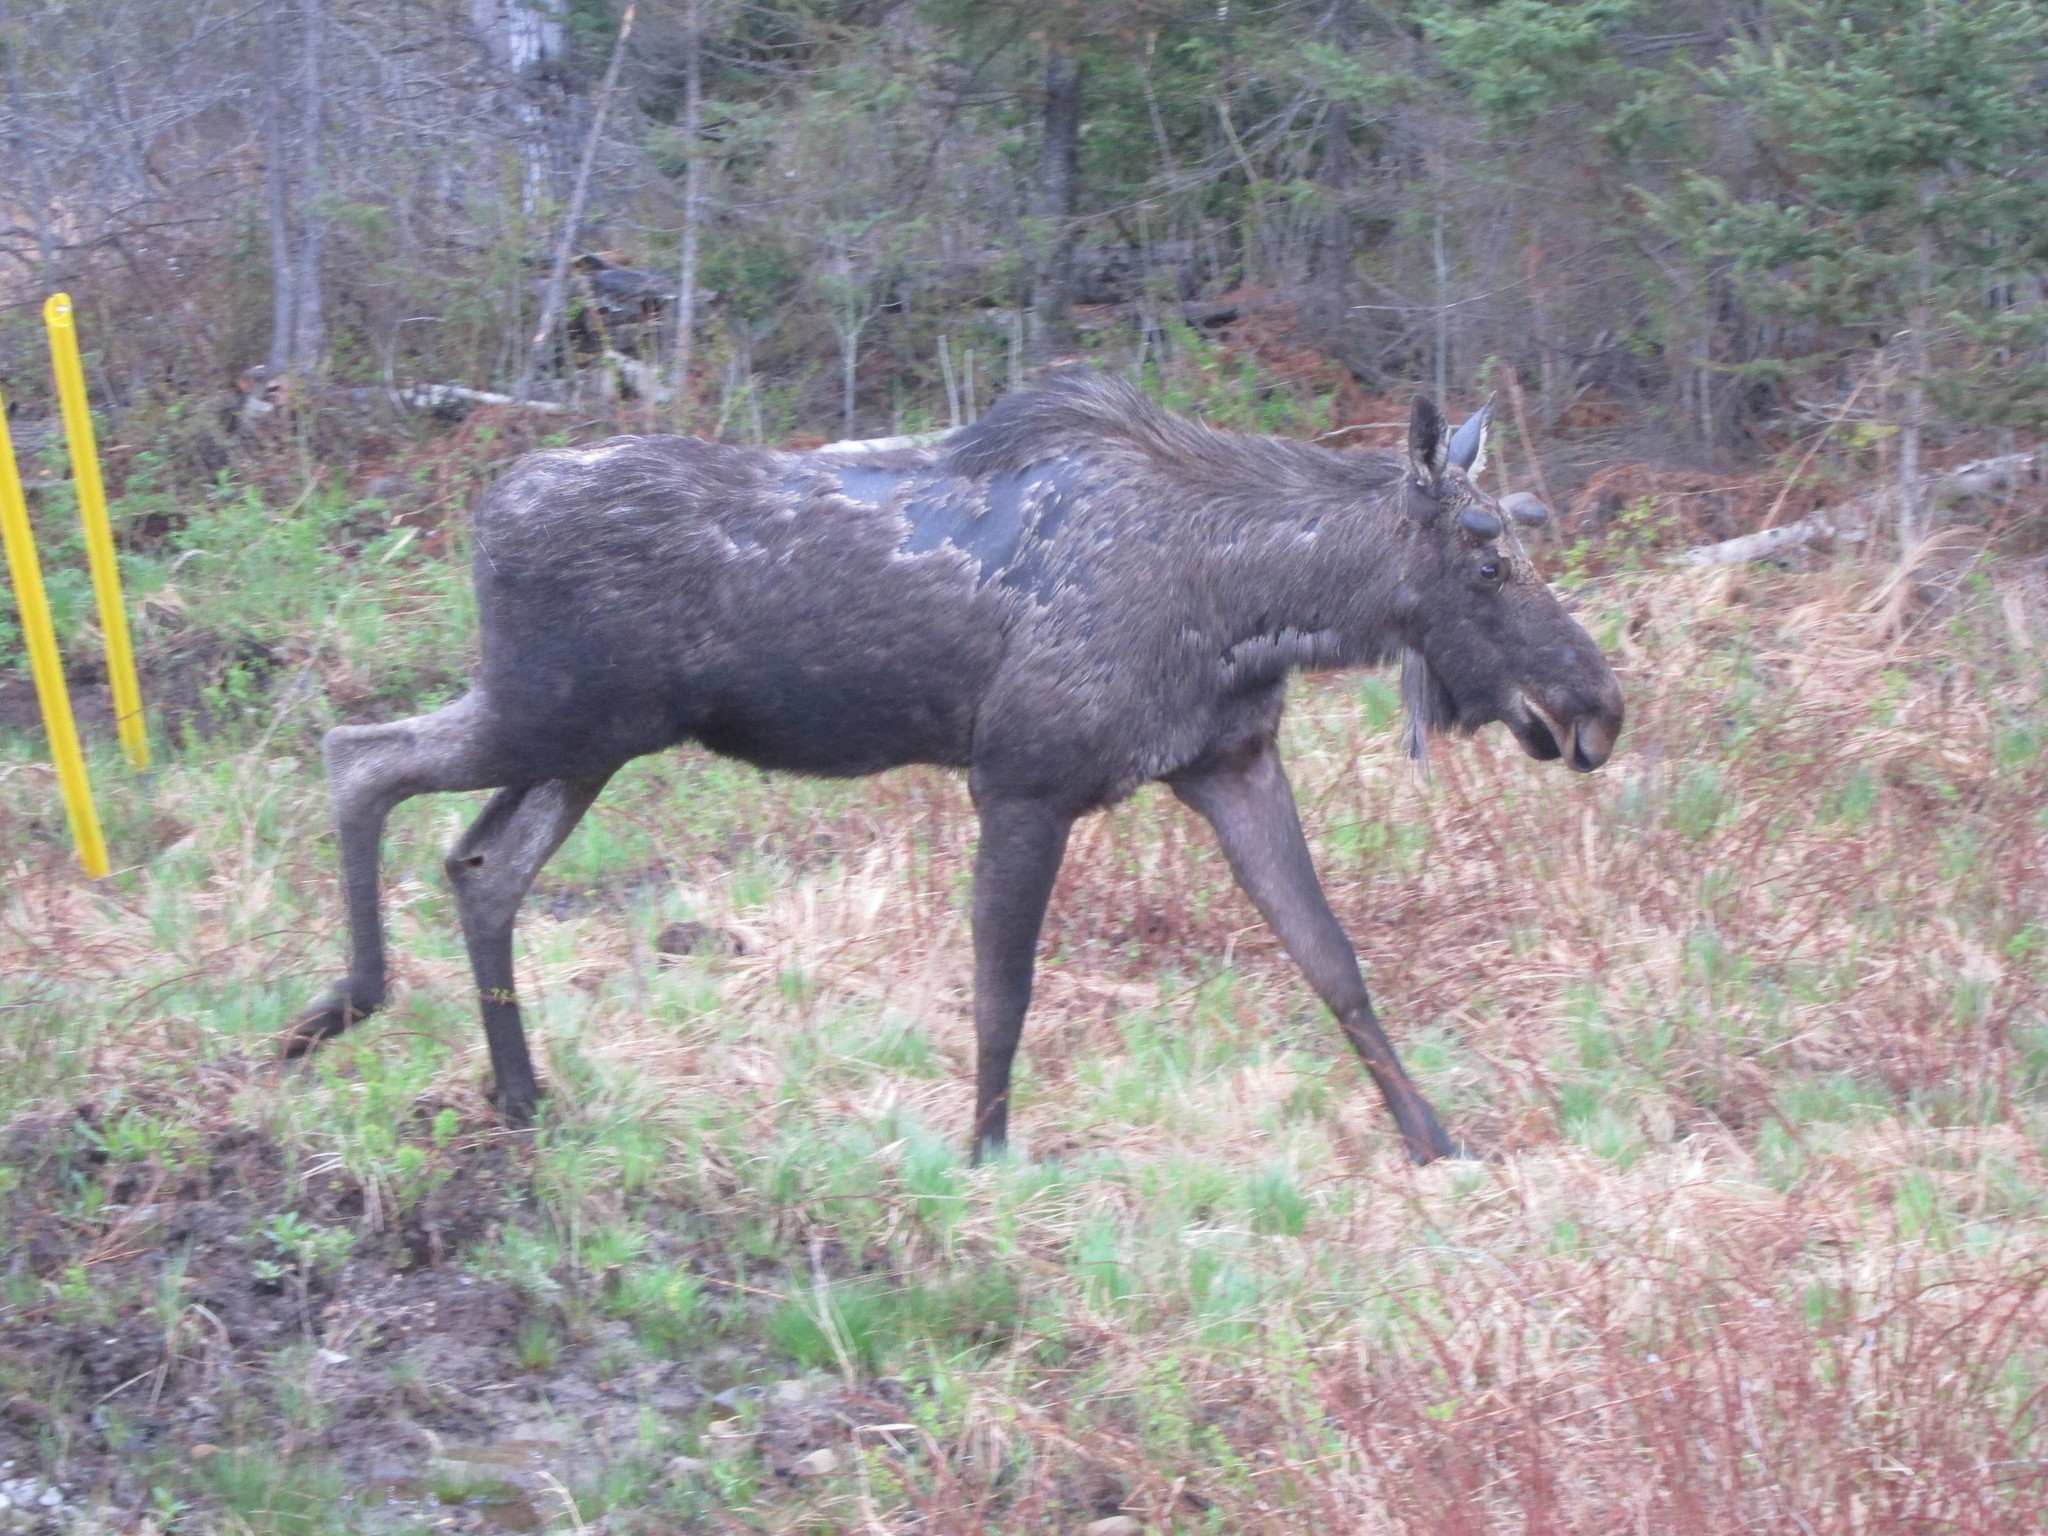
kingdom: Animalia
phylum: Chordata
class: Mammalia
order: Artiodactyla
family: Cervidae
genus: Alces
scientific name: Alces alces
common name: Moose
